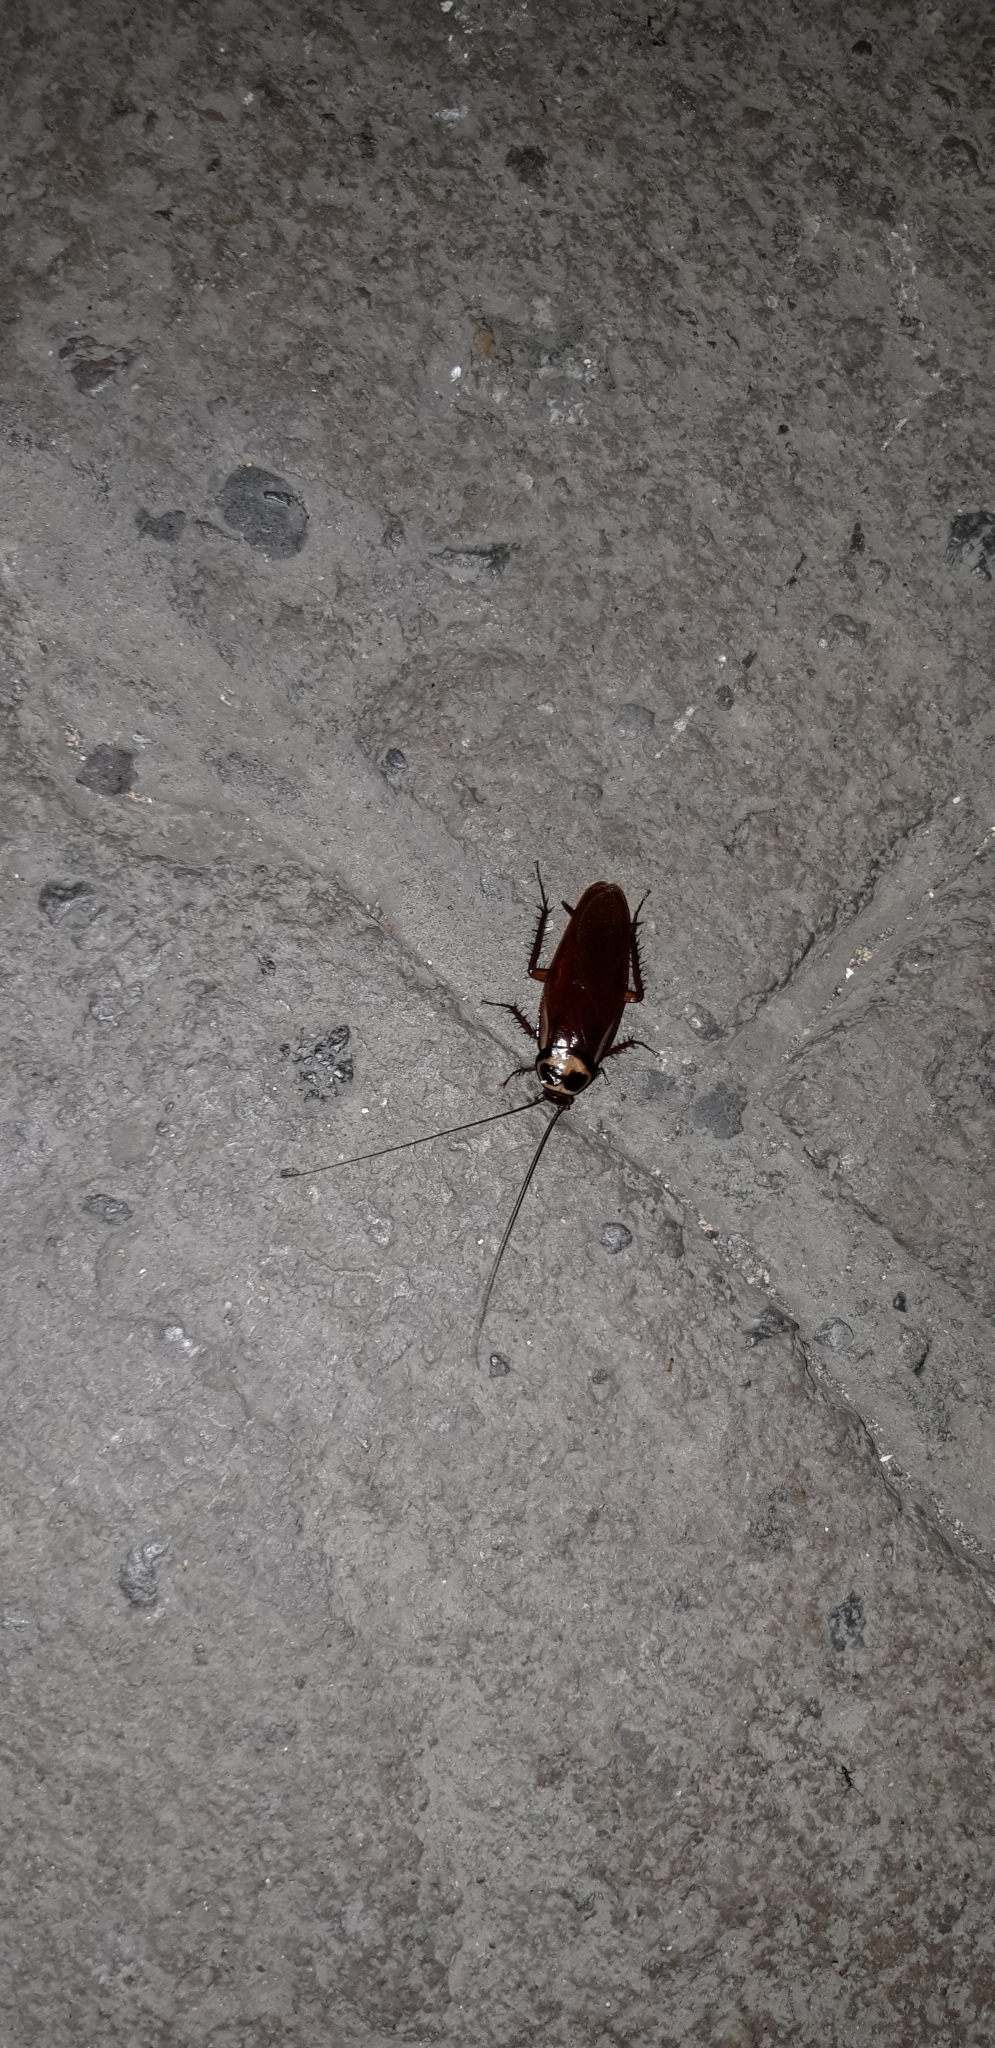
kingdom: Animalia
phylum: Arthropoda
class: Insecta
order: Blattodea
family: Blattidae
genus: Periplaneta
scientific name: Periplaneta australasiae
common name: Australian cockroach
